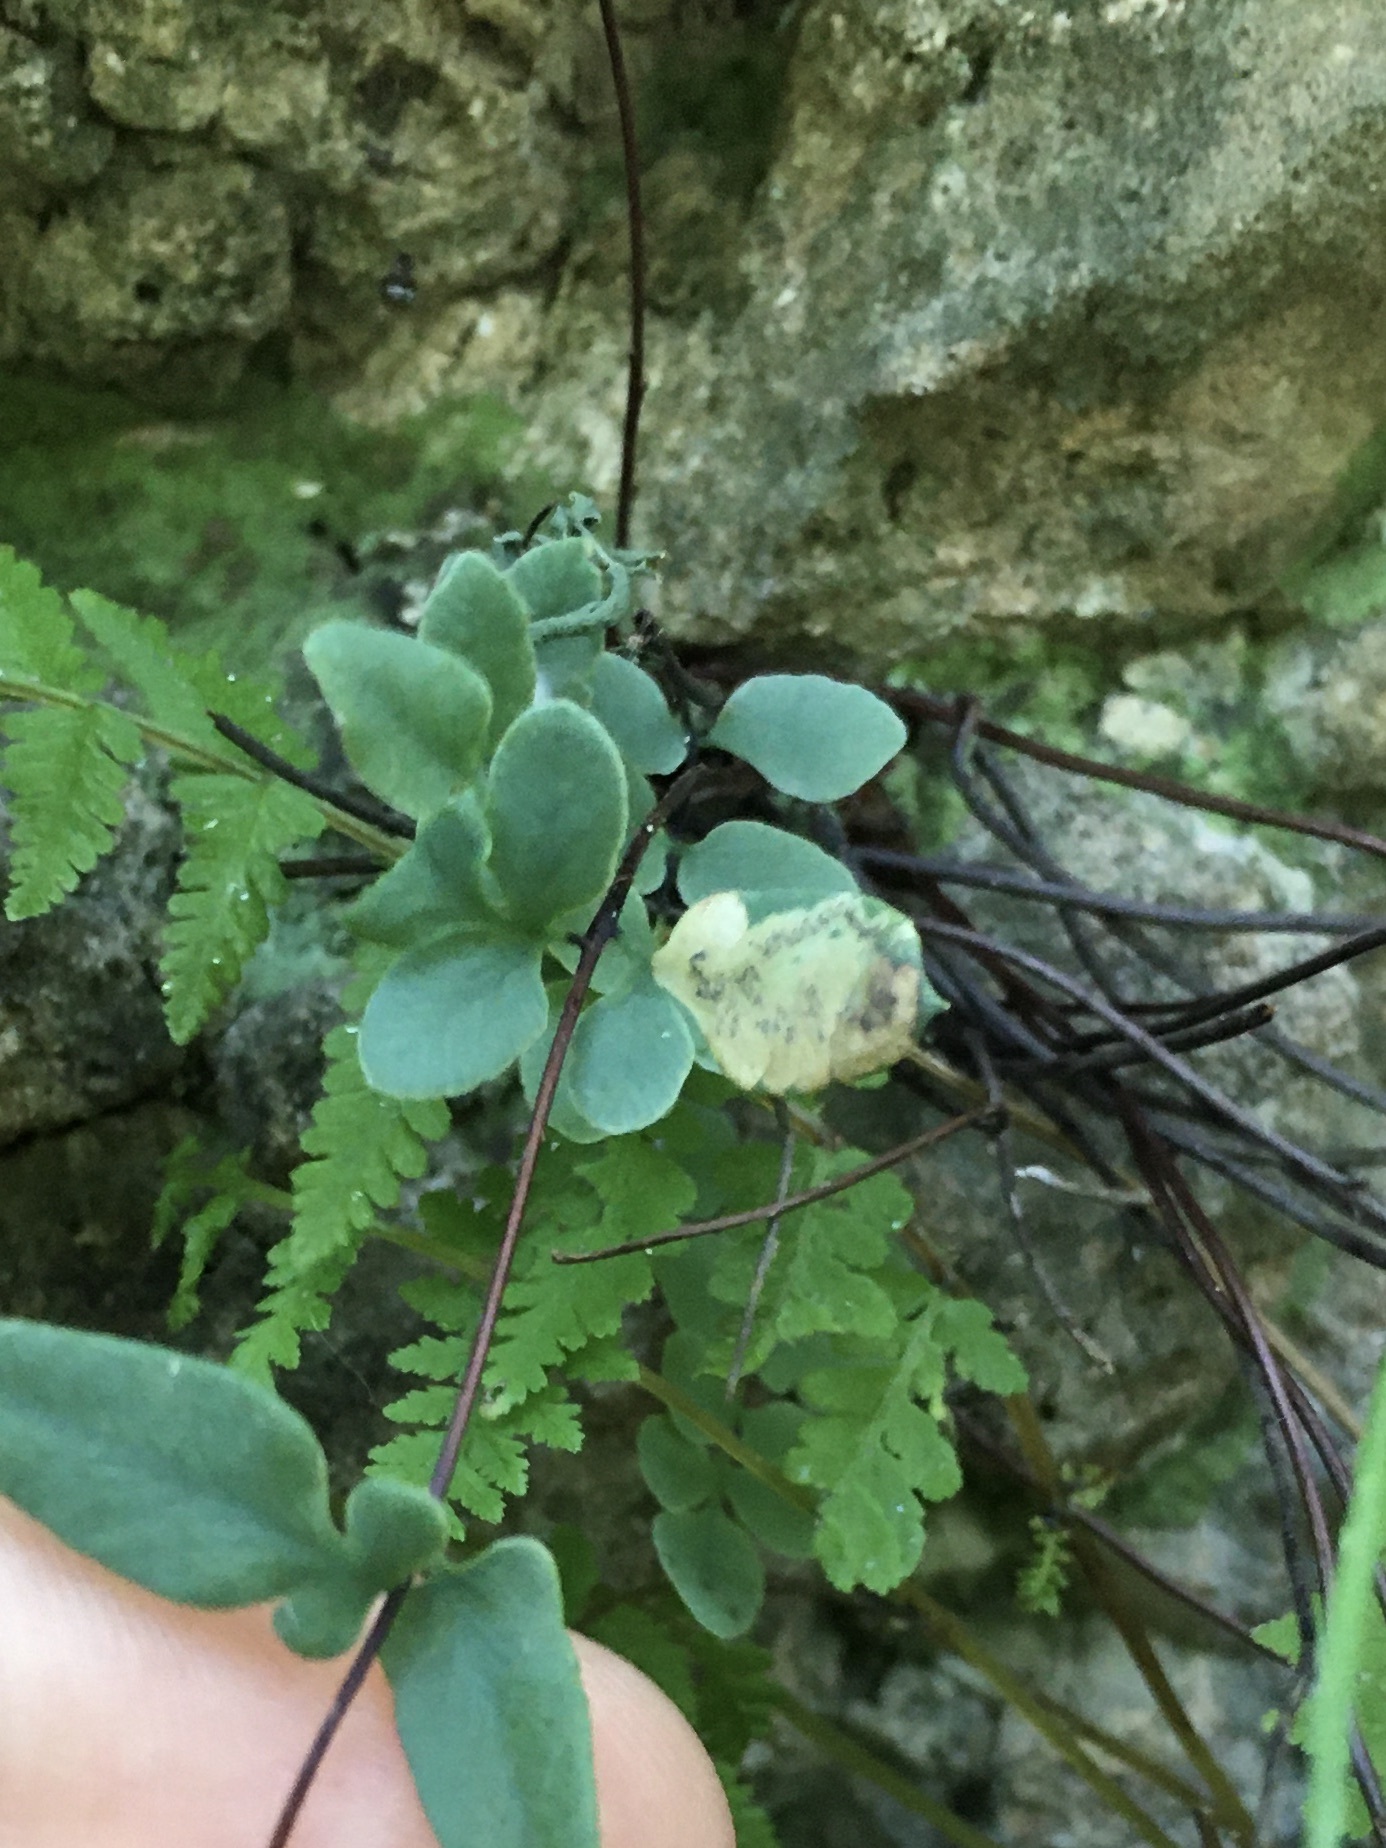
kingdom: Animalia
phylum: Arthropoda
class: Insecta
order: Diptera
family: Agromyzidae
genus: Phytoliriomyza
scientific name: Phytoliriomyza felti
